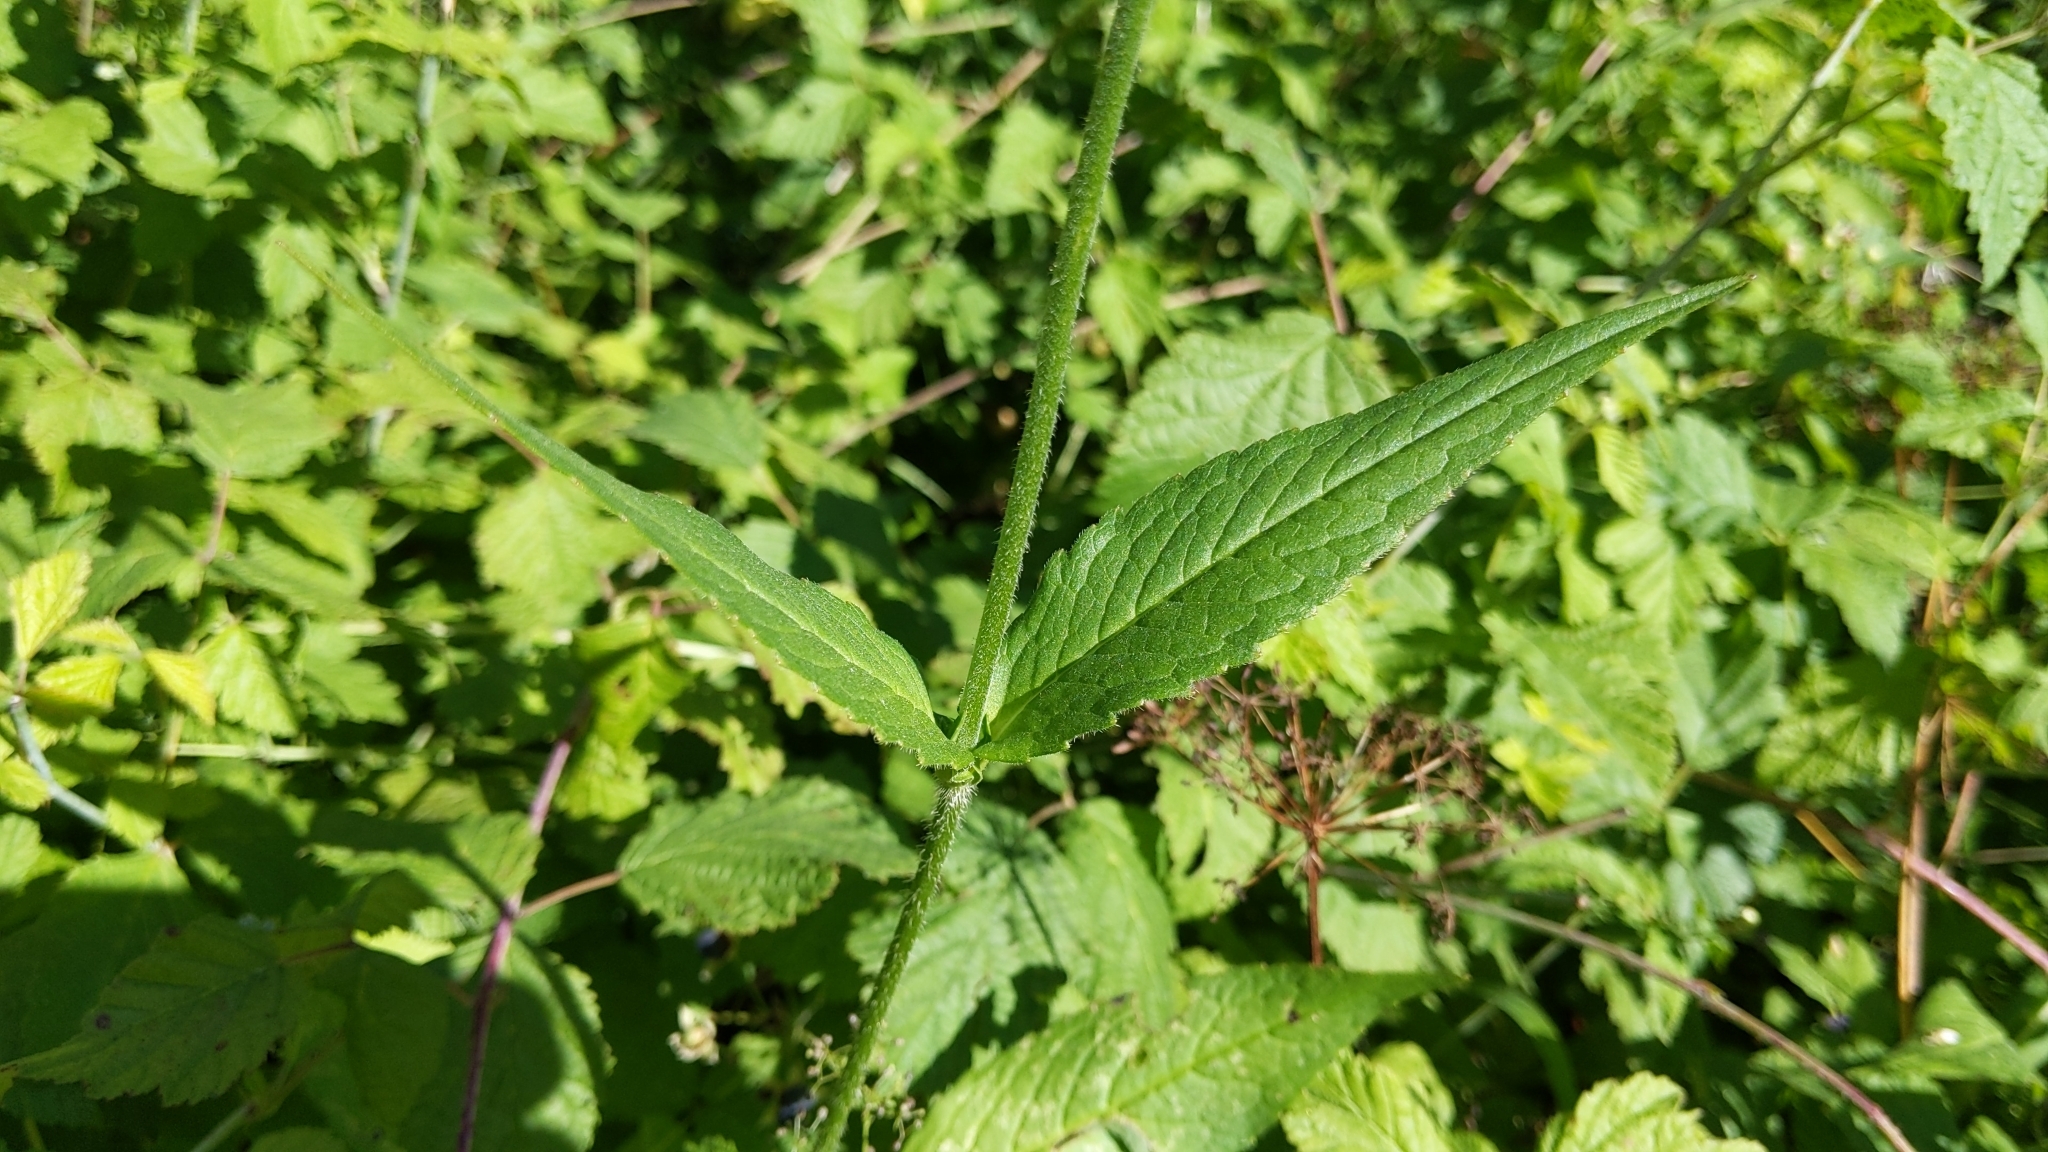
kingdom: Plantae
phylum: Tracheophyta
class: Magnoliopsida
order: Dipsacales
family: Caprifoliaceae
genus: Knautia
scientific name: Knautia arvensis
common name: Field scabiosa
